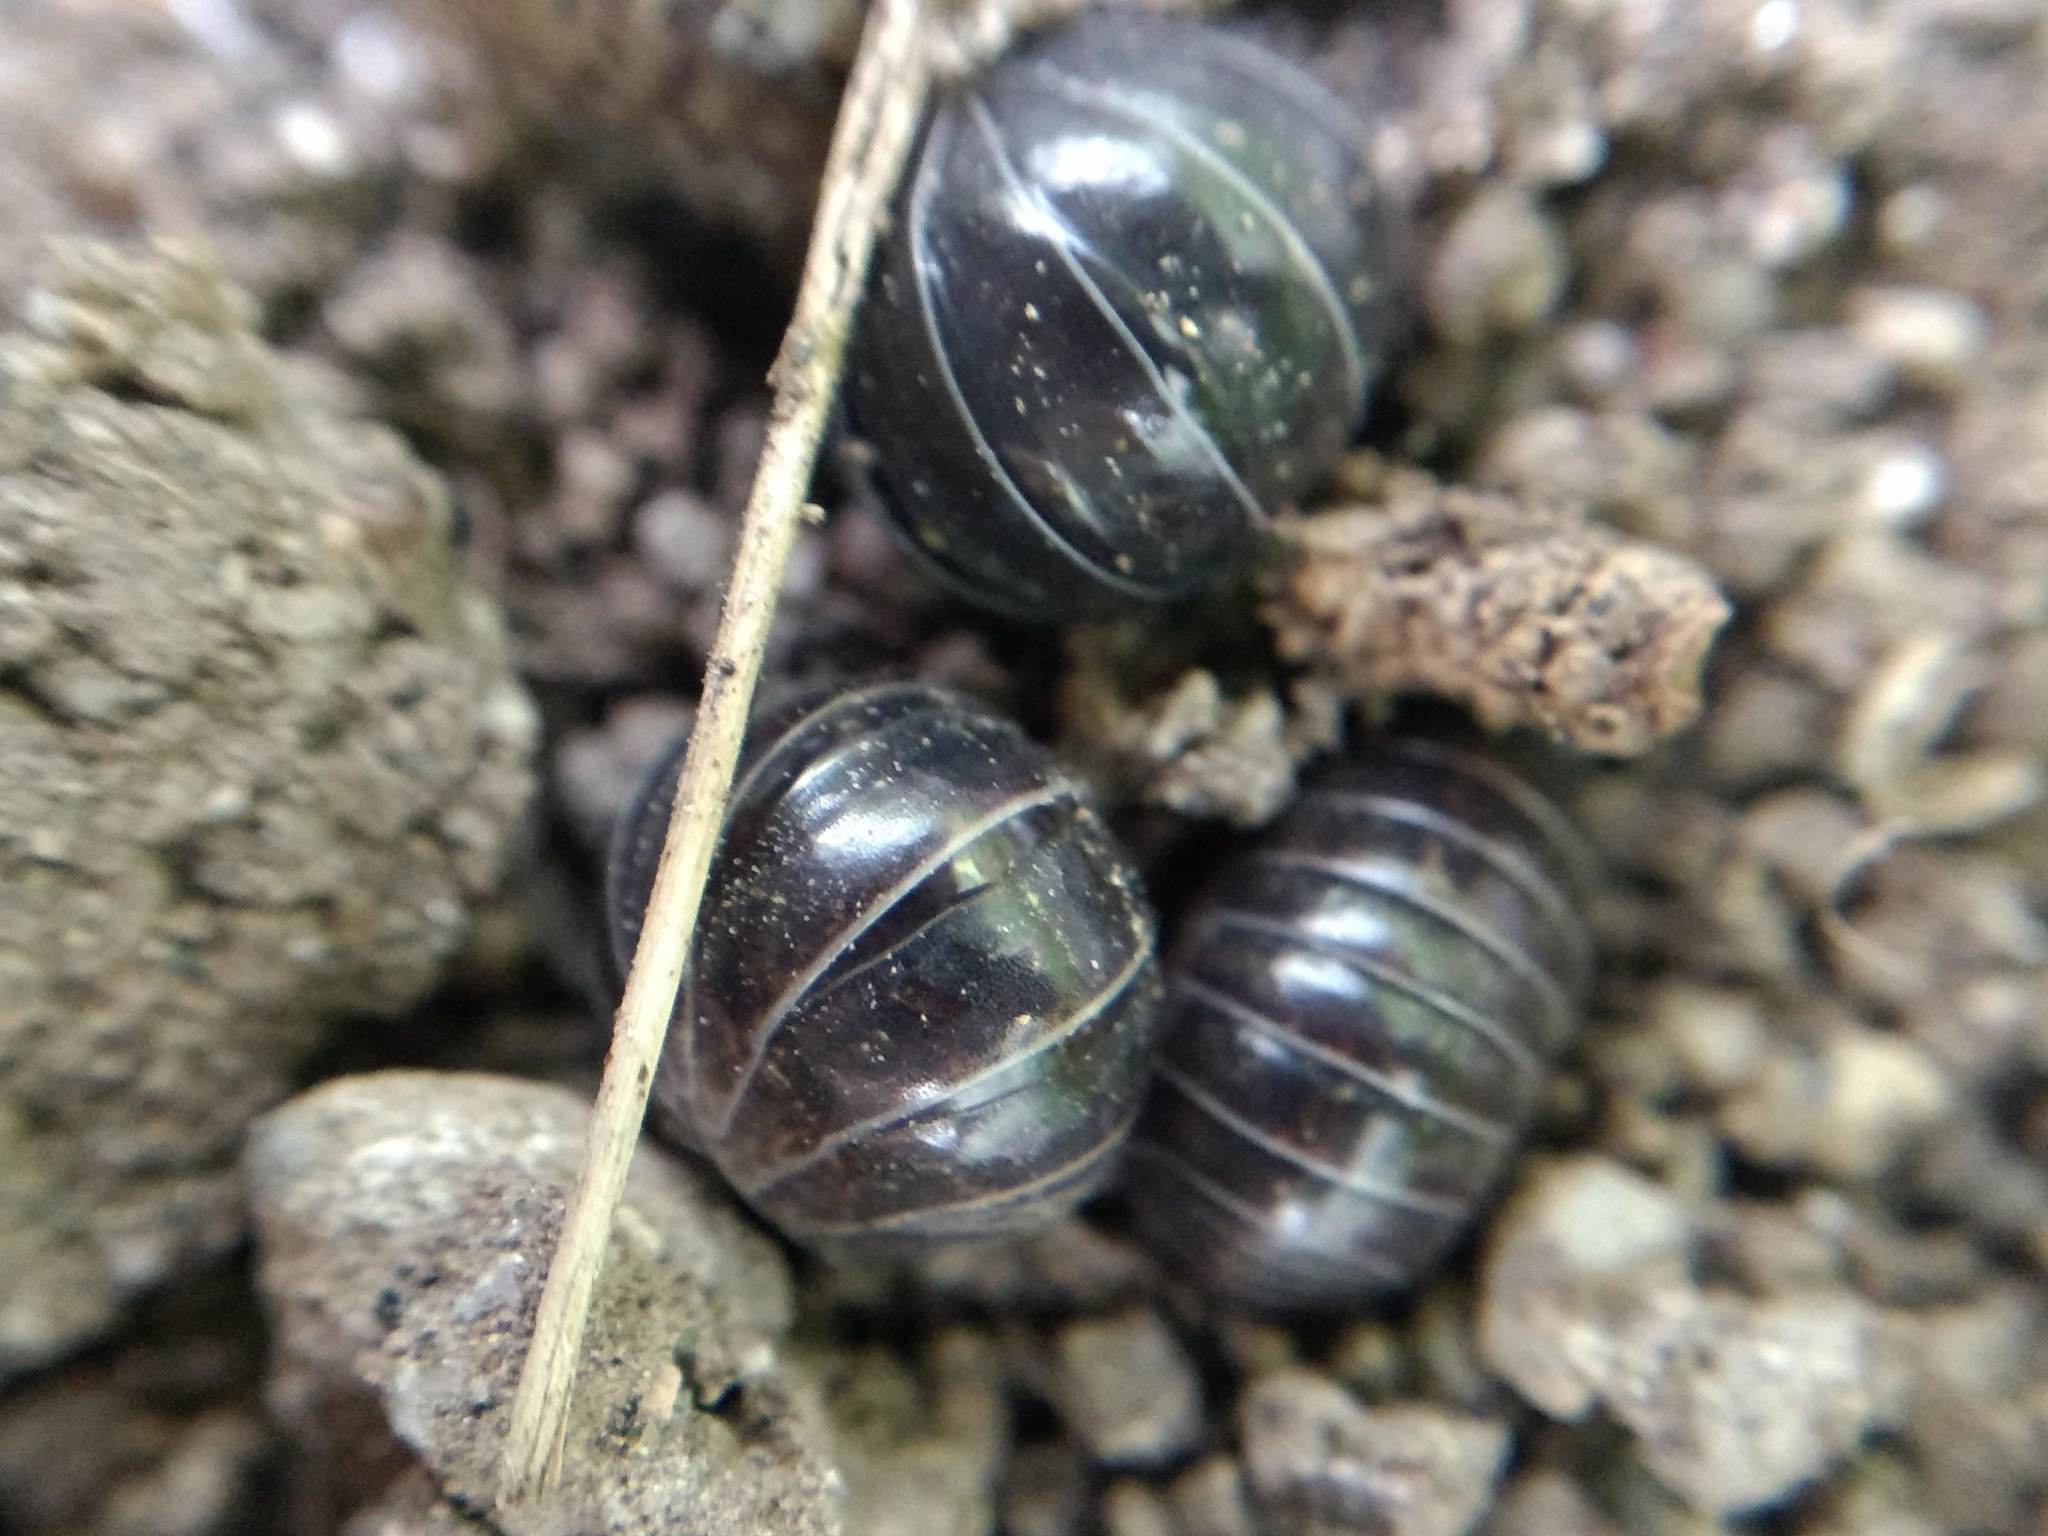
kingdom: Animalia
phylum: Arthropoda
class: Malacostraca
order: Isopoda
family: Armadillidiidae
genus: Armadillidium
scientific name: Armadillidium vulgare
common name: Common pill woodlouse
